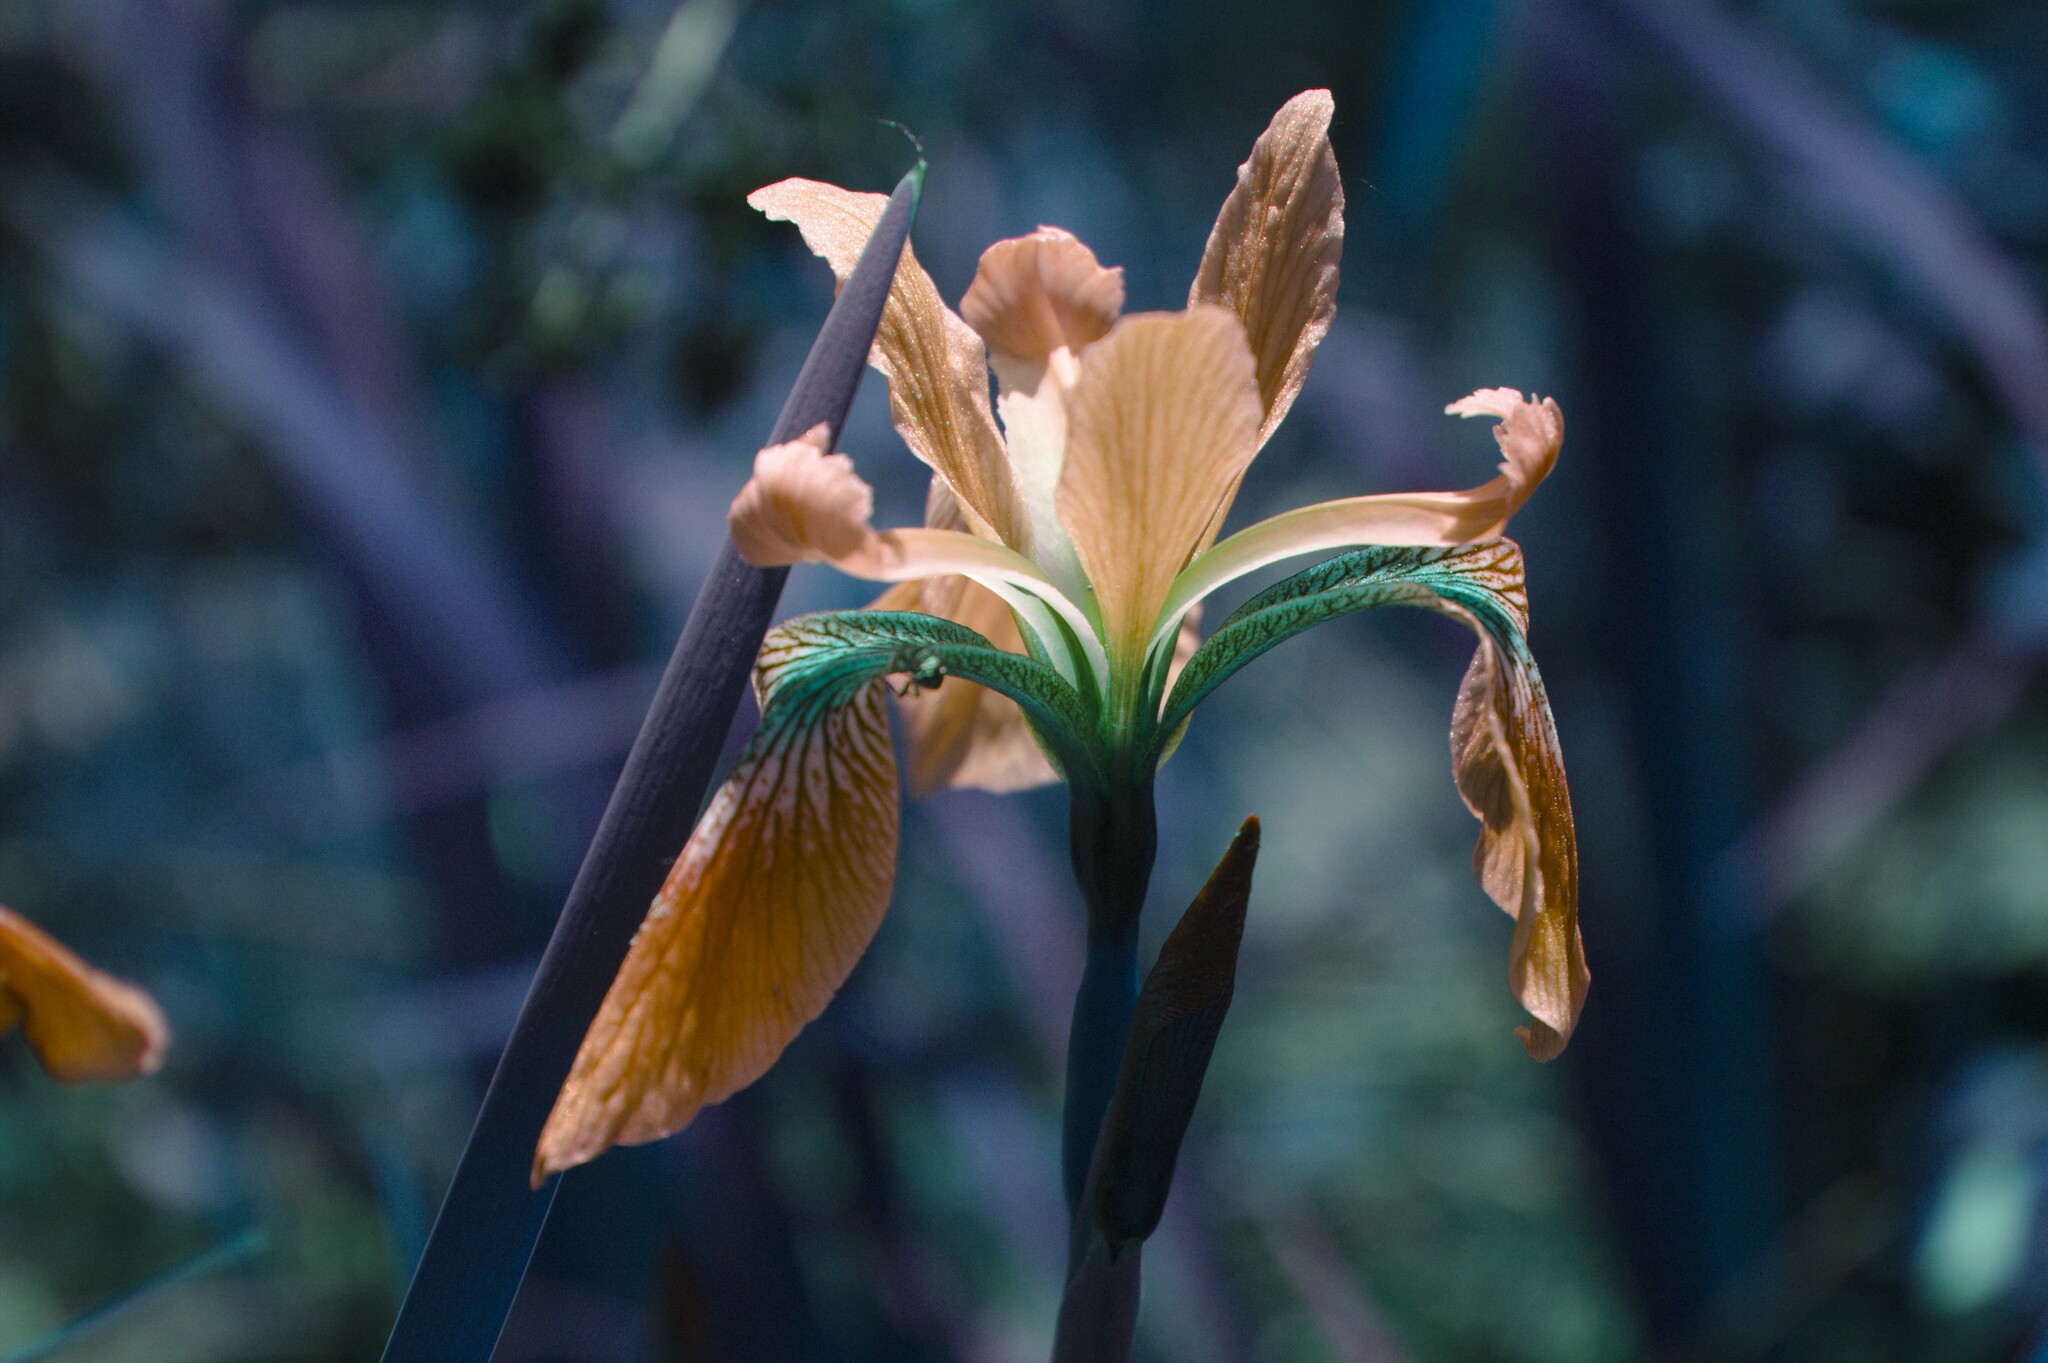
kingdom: Plantae
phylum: Tracheophyta
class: Liliopsida
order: Asparagales
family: Iridaceae
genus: Iris
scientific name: Iris versicolor
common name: Purple iris
